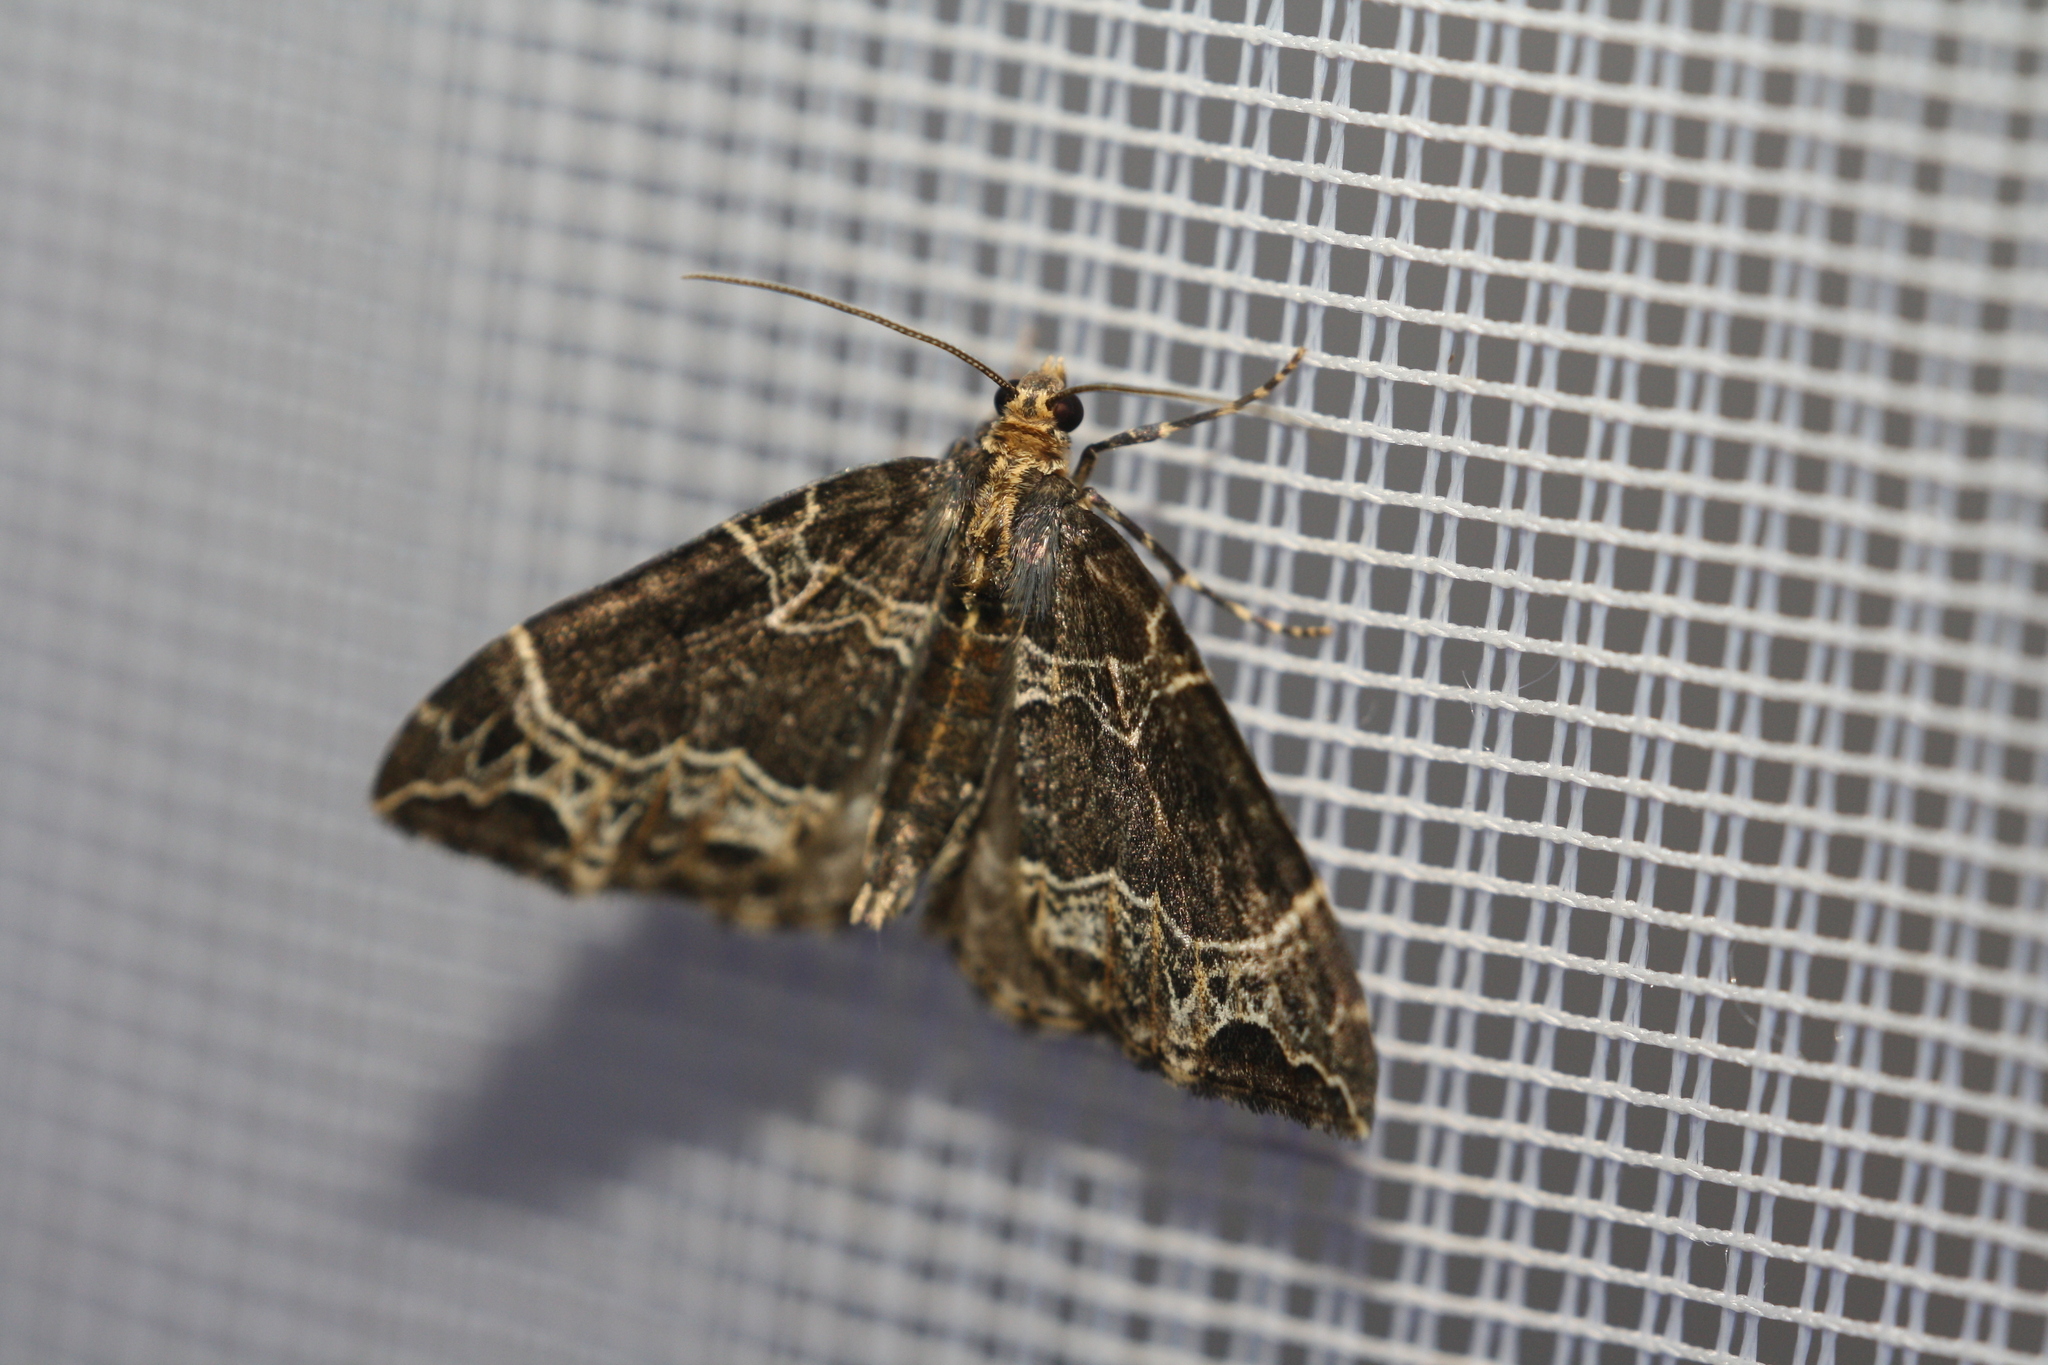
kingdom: Animalia
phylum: Arthropoda
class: Insecta
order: Lepidoptera
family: Geometridae
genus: Ecliptopera
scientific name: Ecliptopera silaceata
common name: Small phoenix
